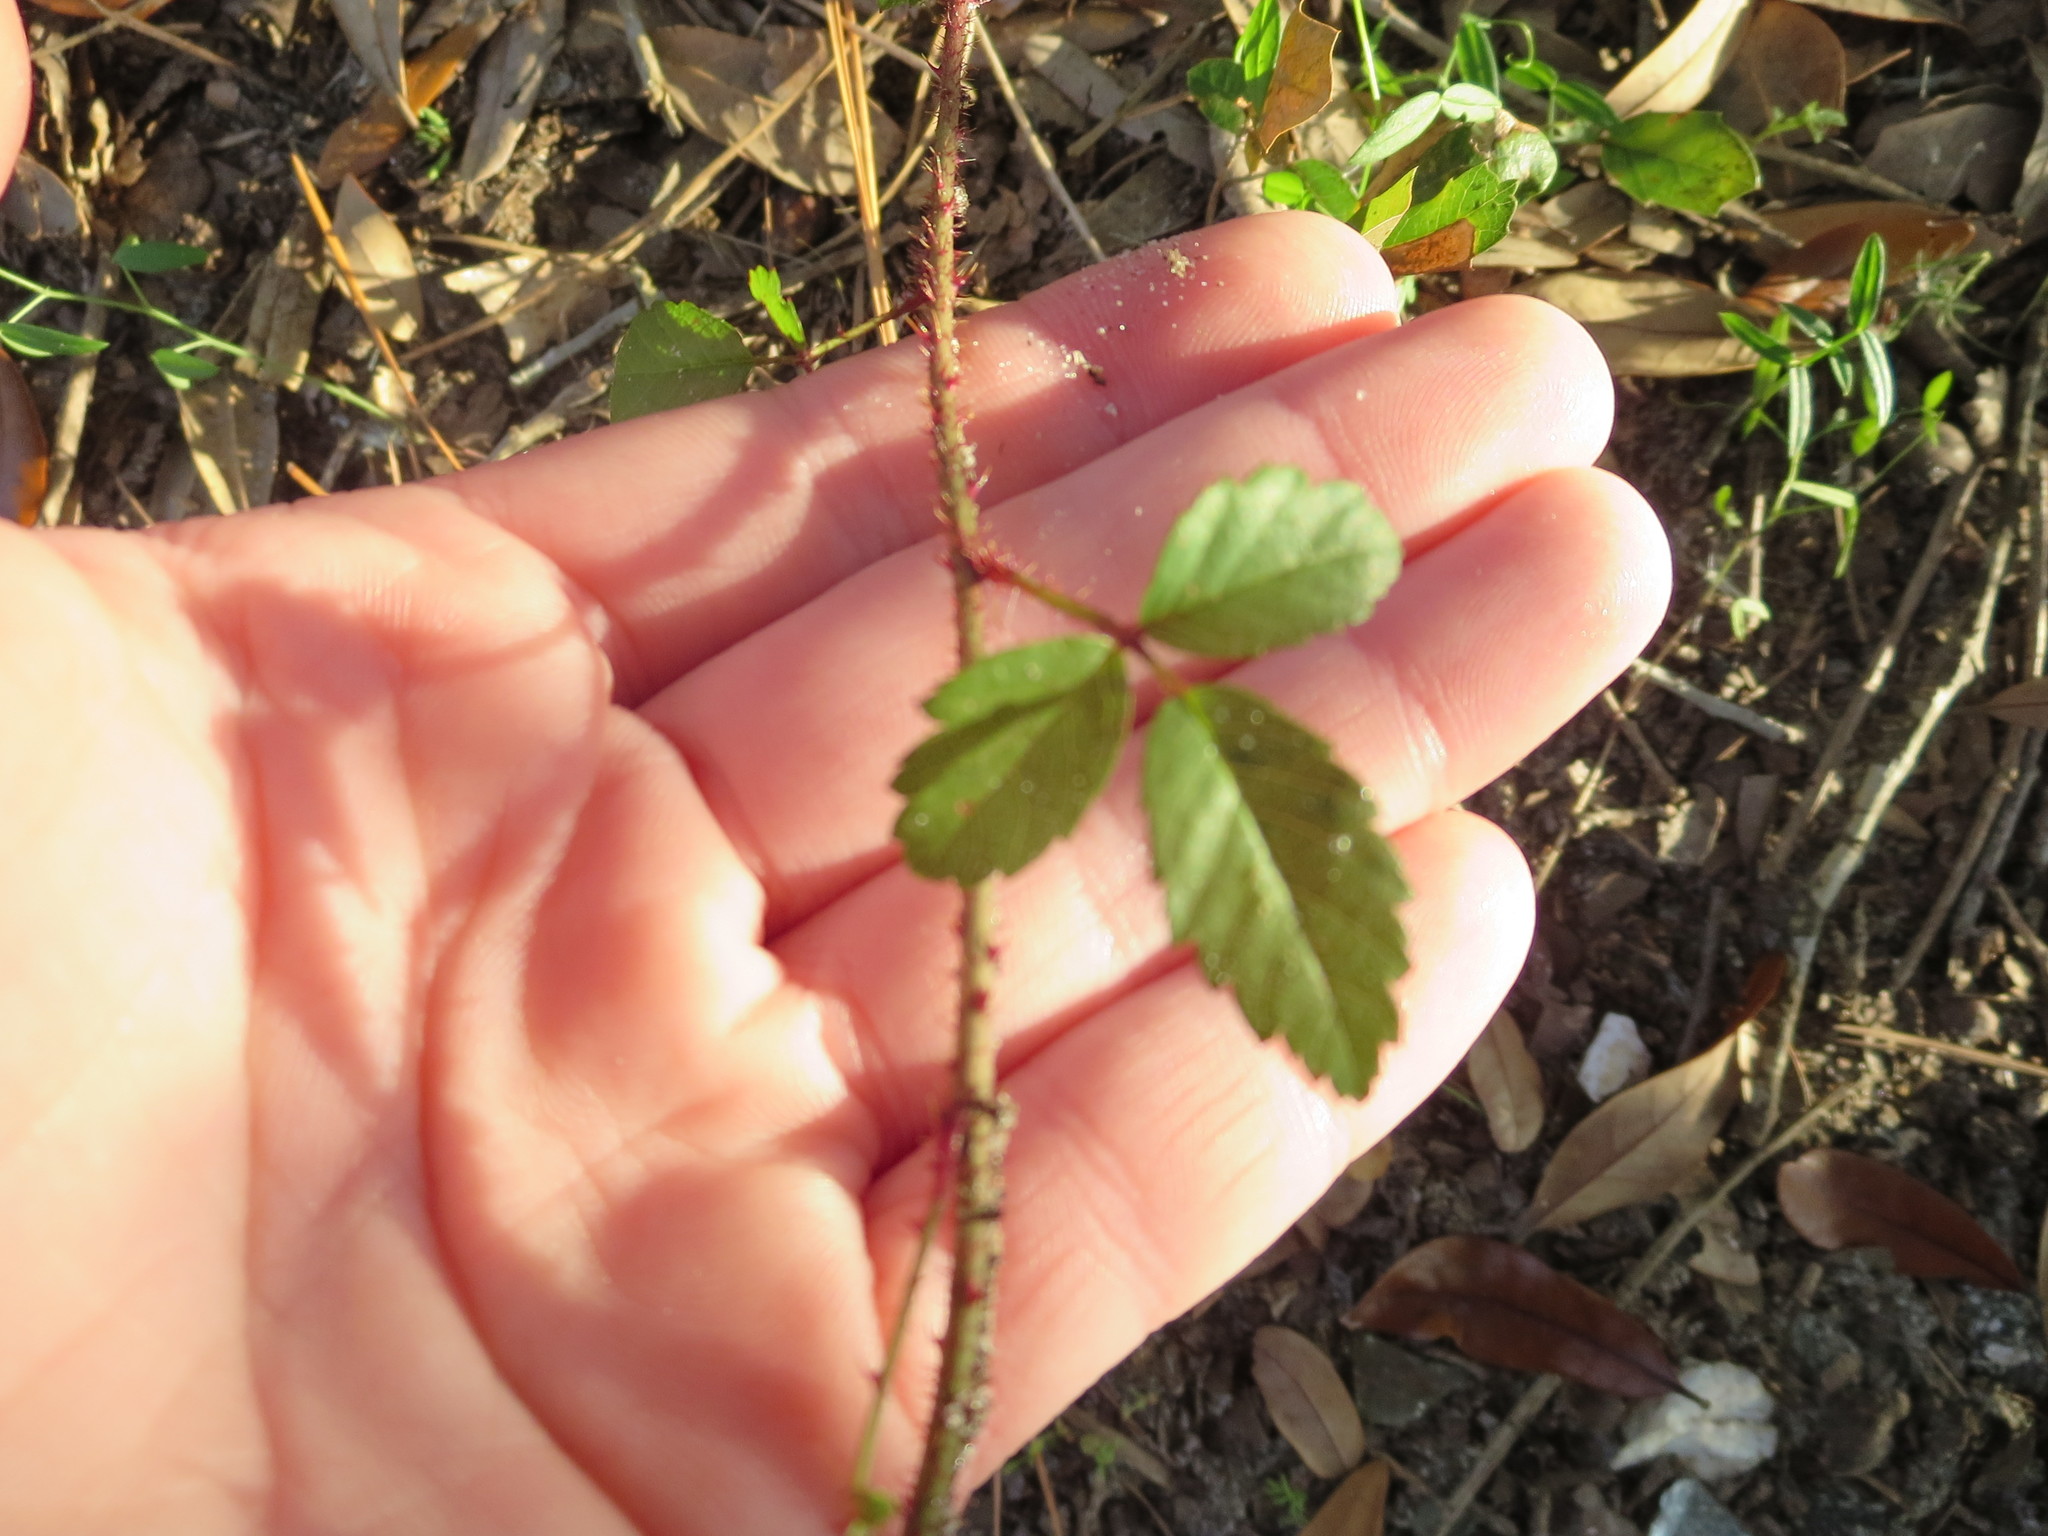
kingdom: Plantae
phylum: Tracheophyta
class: Magnoliopsida
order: Rosales
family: Rosaceae
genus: Rubus
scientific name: Rubus trivialis
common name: Southern dewberry
